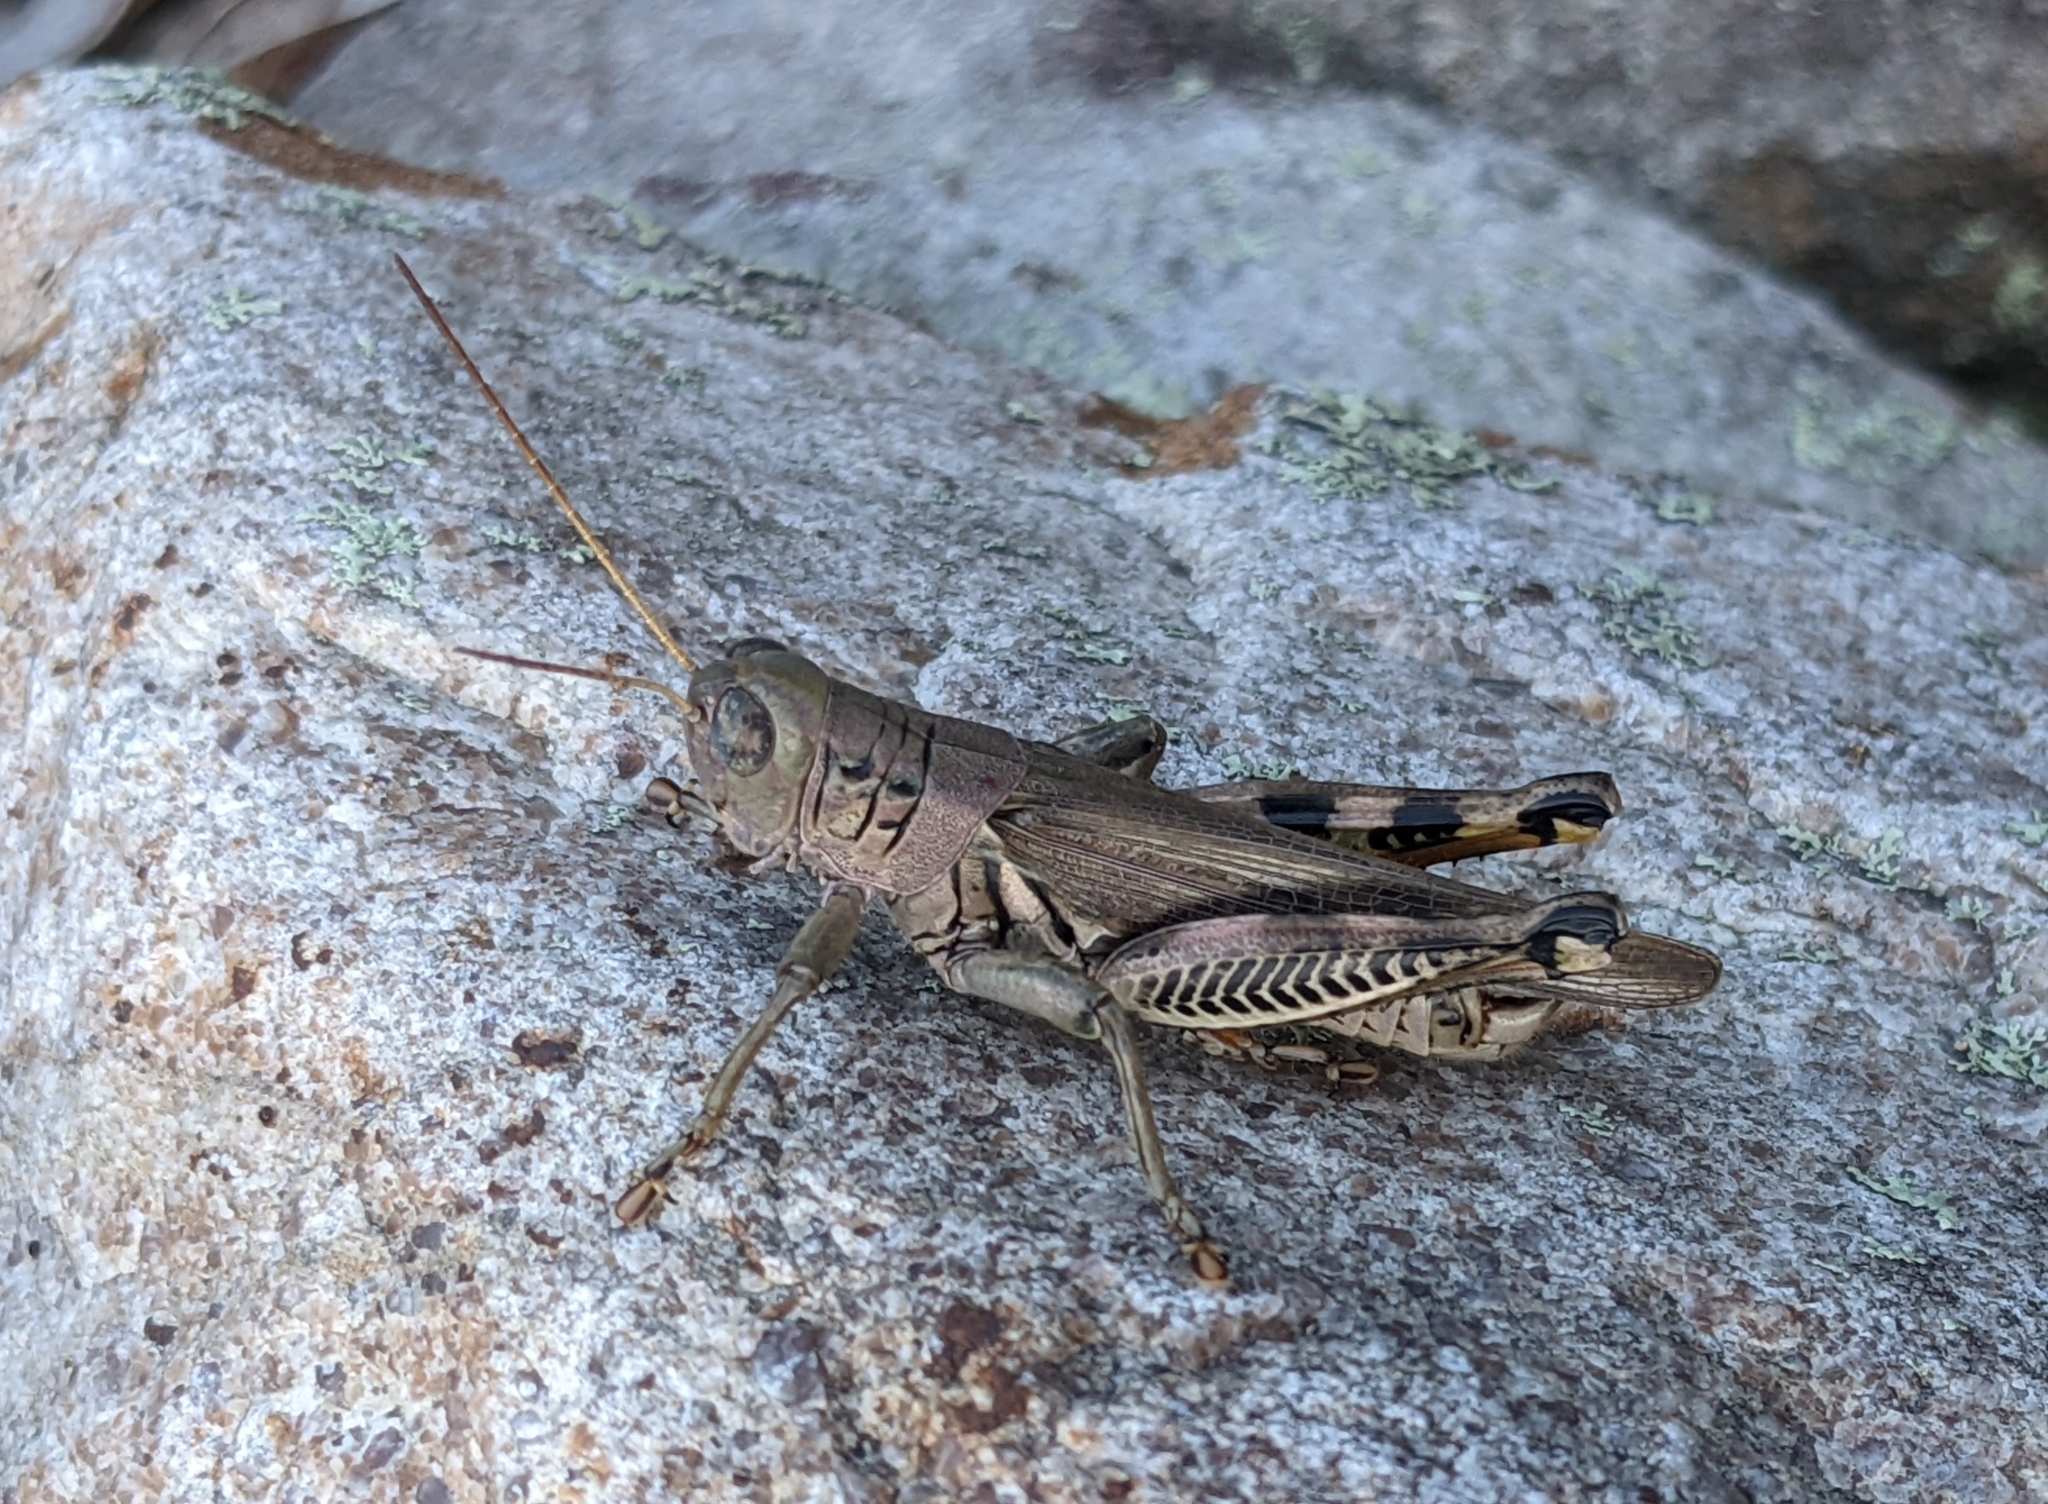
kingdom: Animalia
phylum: Arthropoda
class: Insecta
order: Orthoptera
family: Acrididae
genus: Melanoplus
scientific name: Melanoplus differentialis
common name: Differential grasshopper
